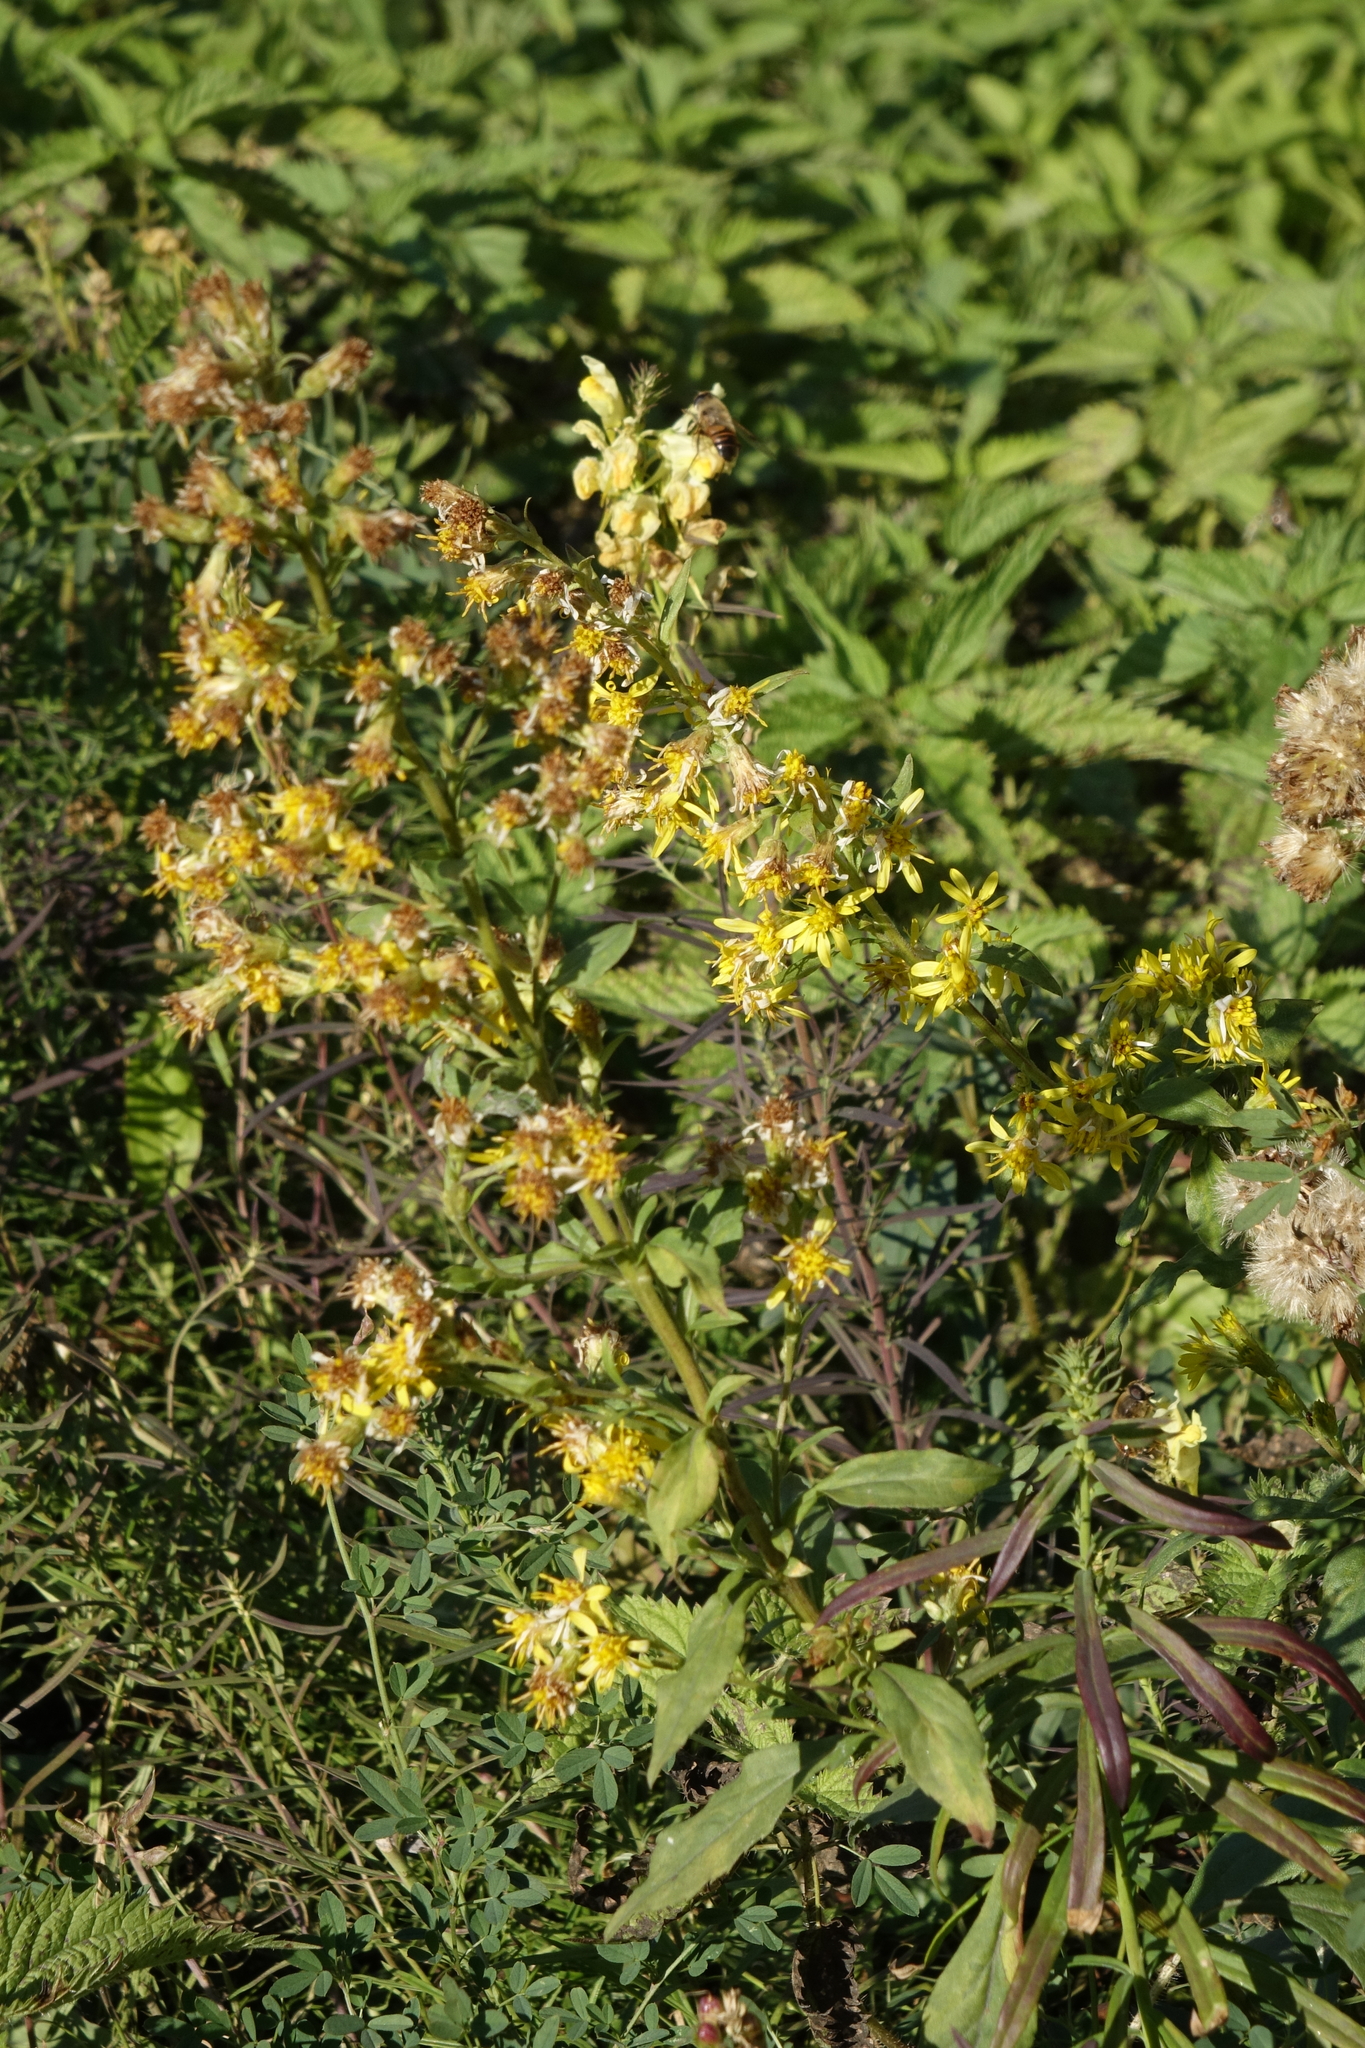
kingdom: Plantae
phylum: Tracheophyta
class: Magnoliopsida
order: Asterales
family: Asteraceae
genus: Solidago
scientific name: Solidago virgaurea
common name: Goldenrod
